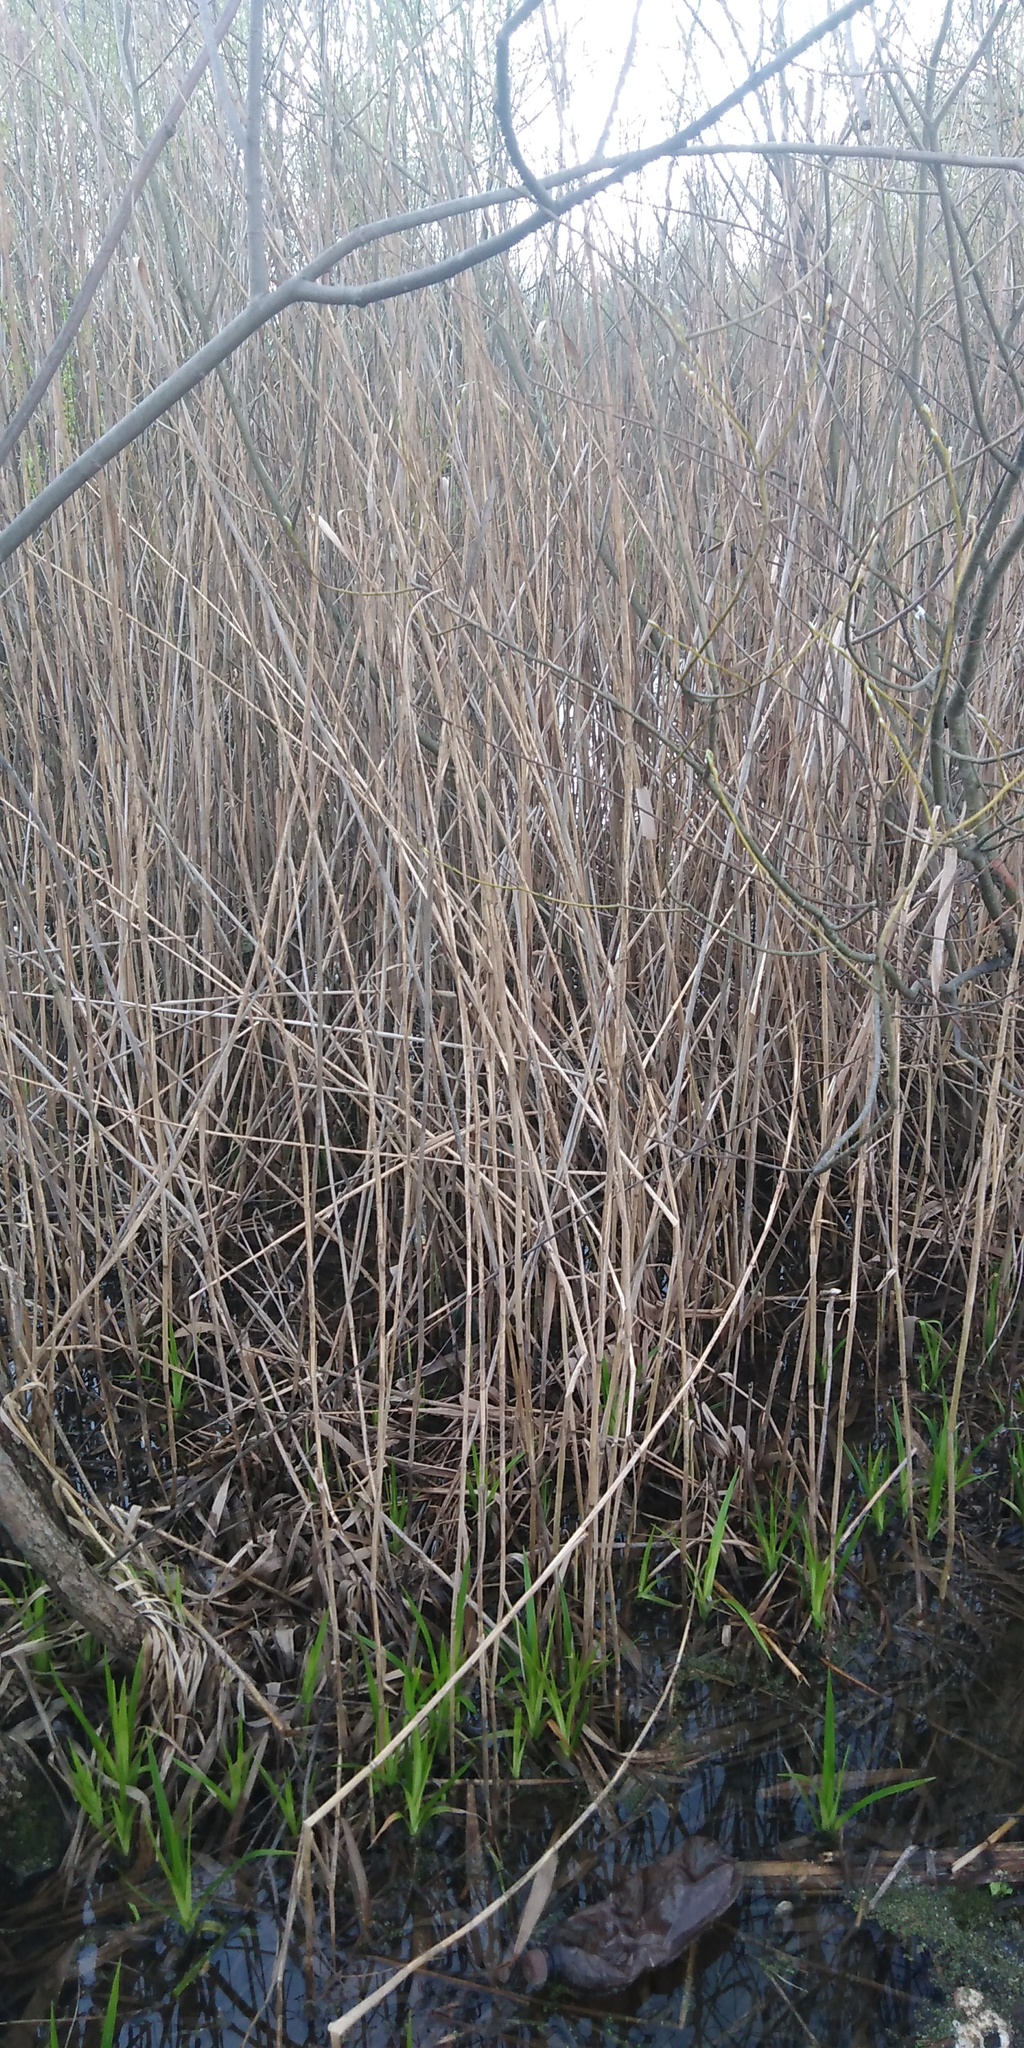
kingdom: Plantae
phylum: Tracheophyta
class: Liliopsida
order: Poales
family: Poaceae
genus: Phragmites
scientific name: Phragmites australis
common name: Common reed
